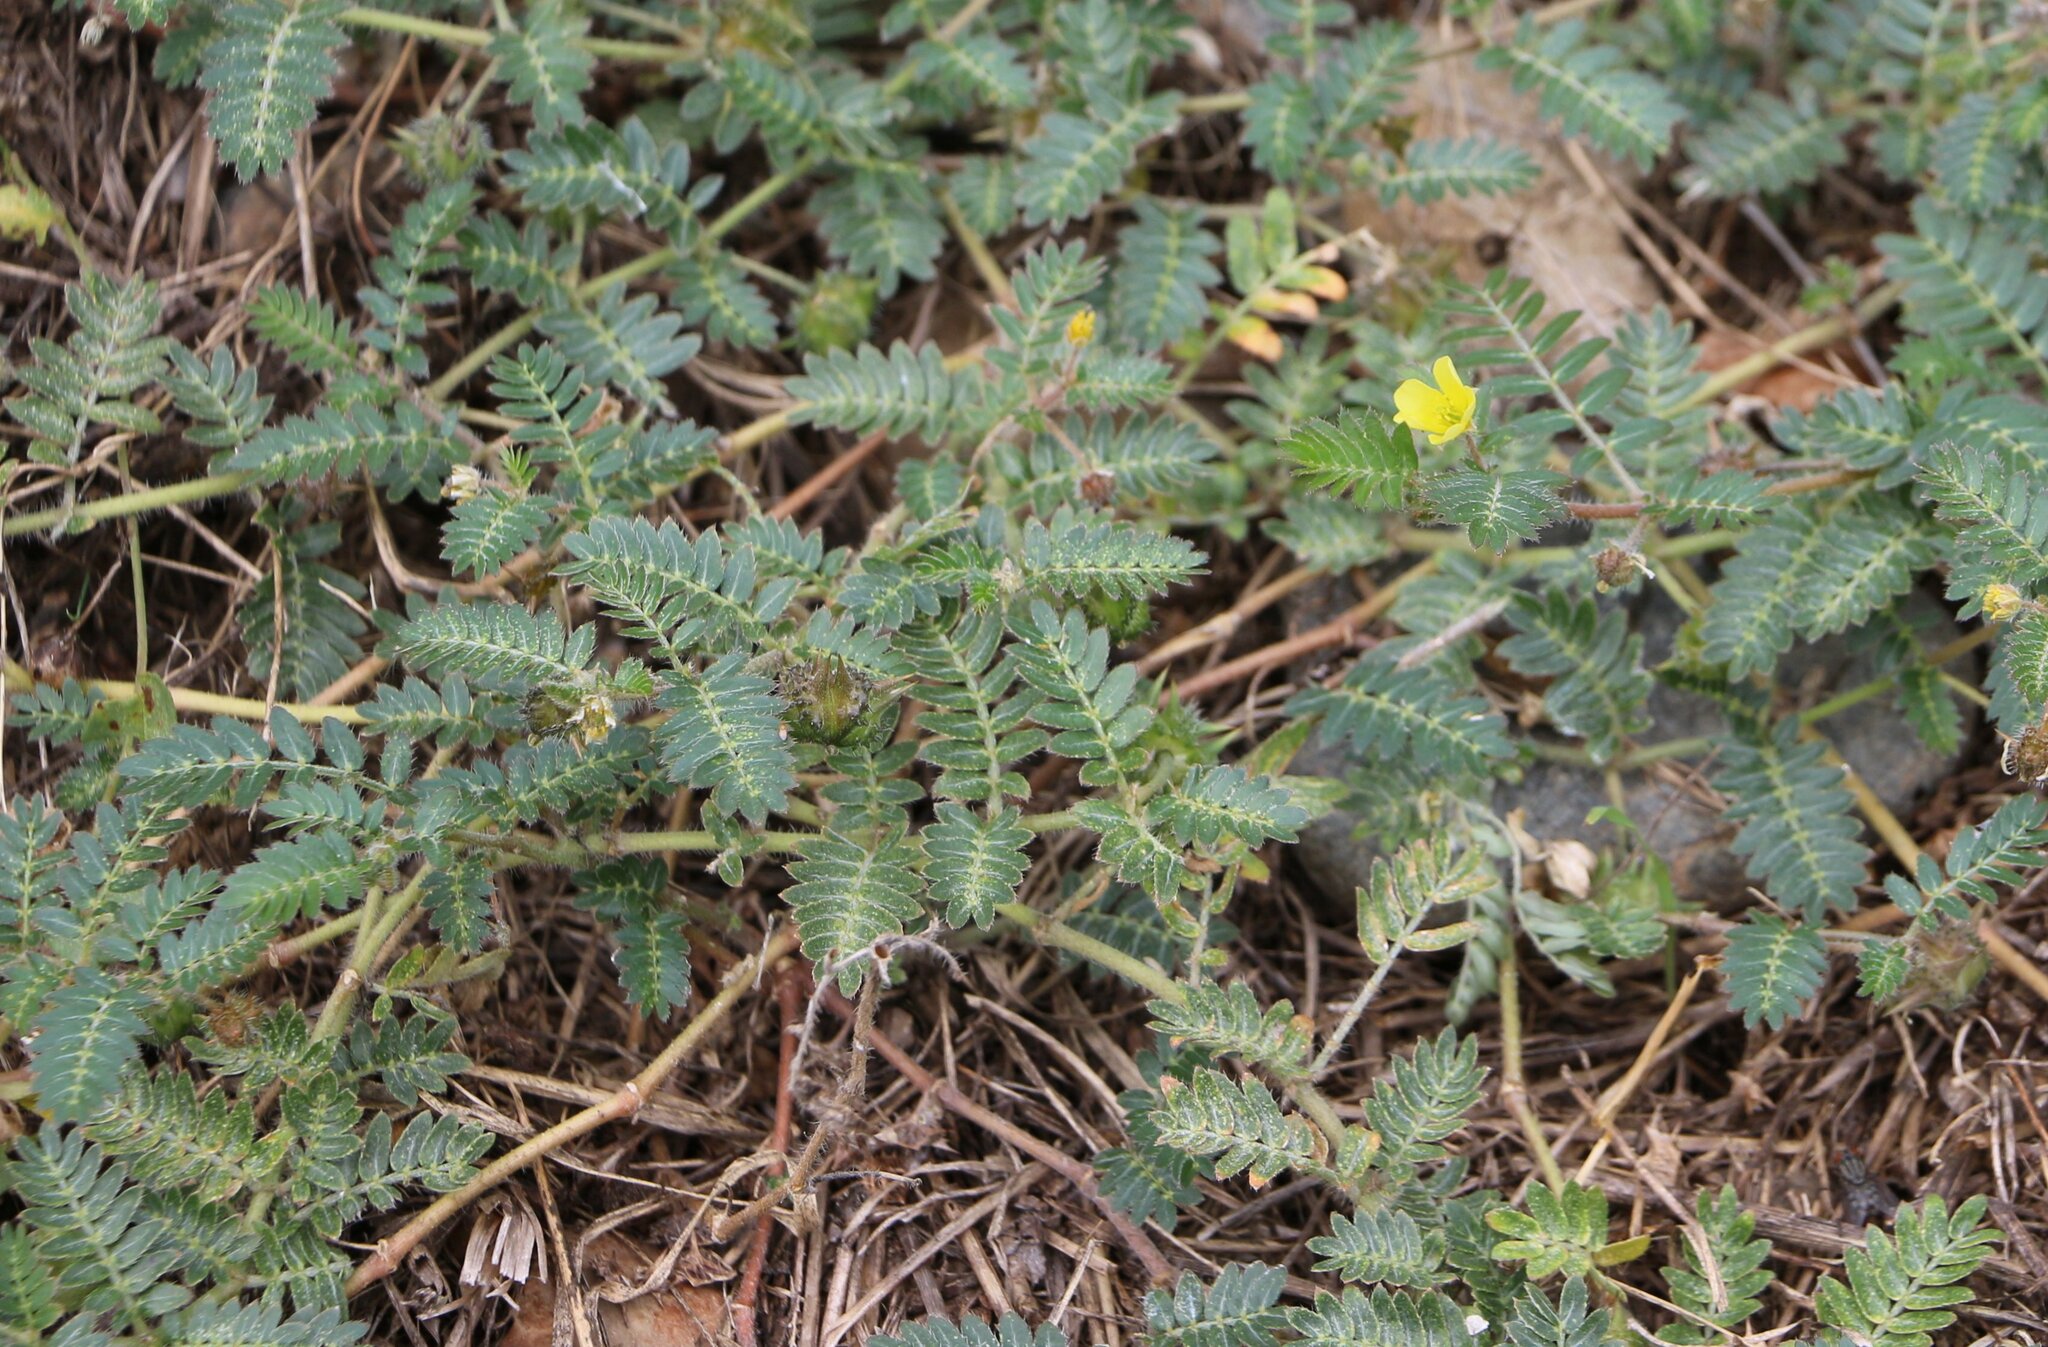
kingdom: Plantae
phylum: Tracheophyta
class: Magnoliopsida
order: Zygophyllales
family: Zygophyllaceae
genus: Tribulus
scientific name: Tribulus terrestris
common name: Puncturevine
